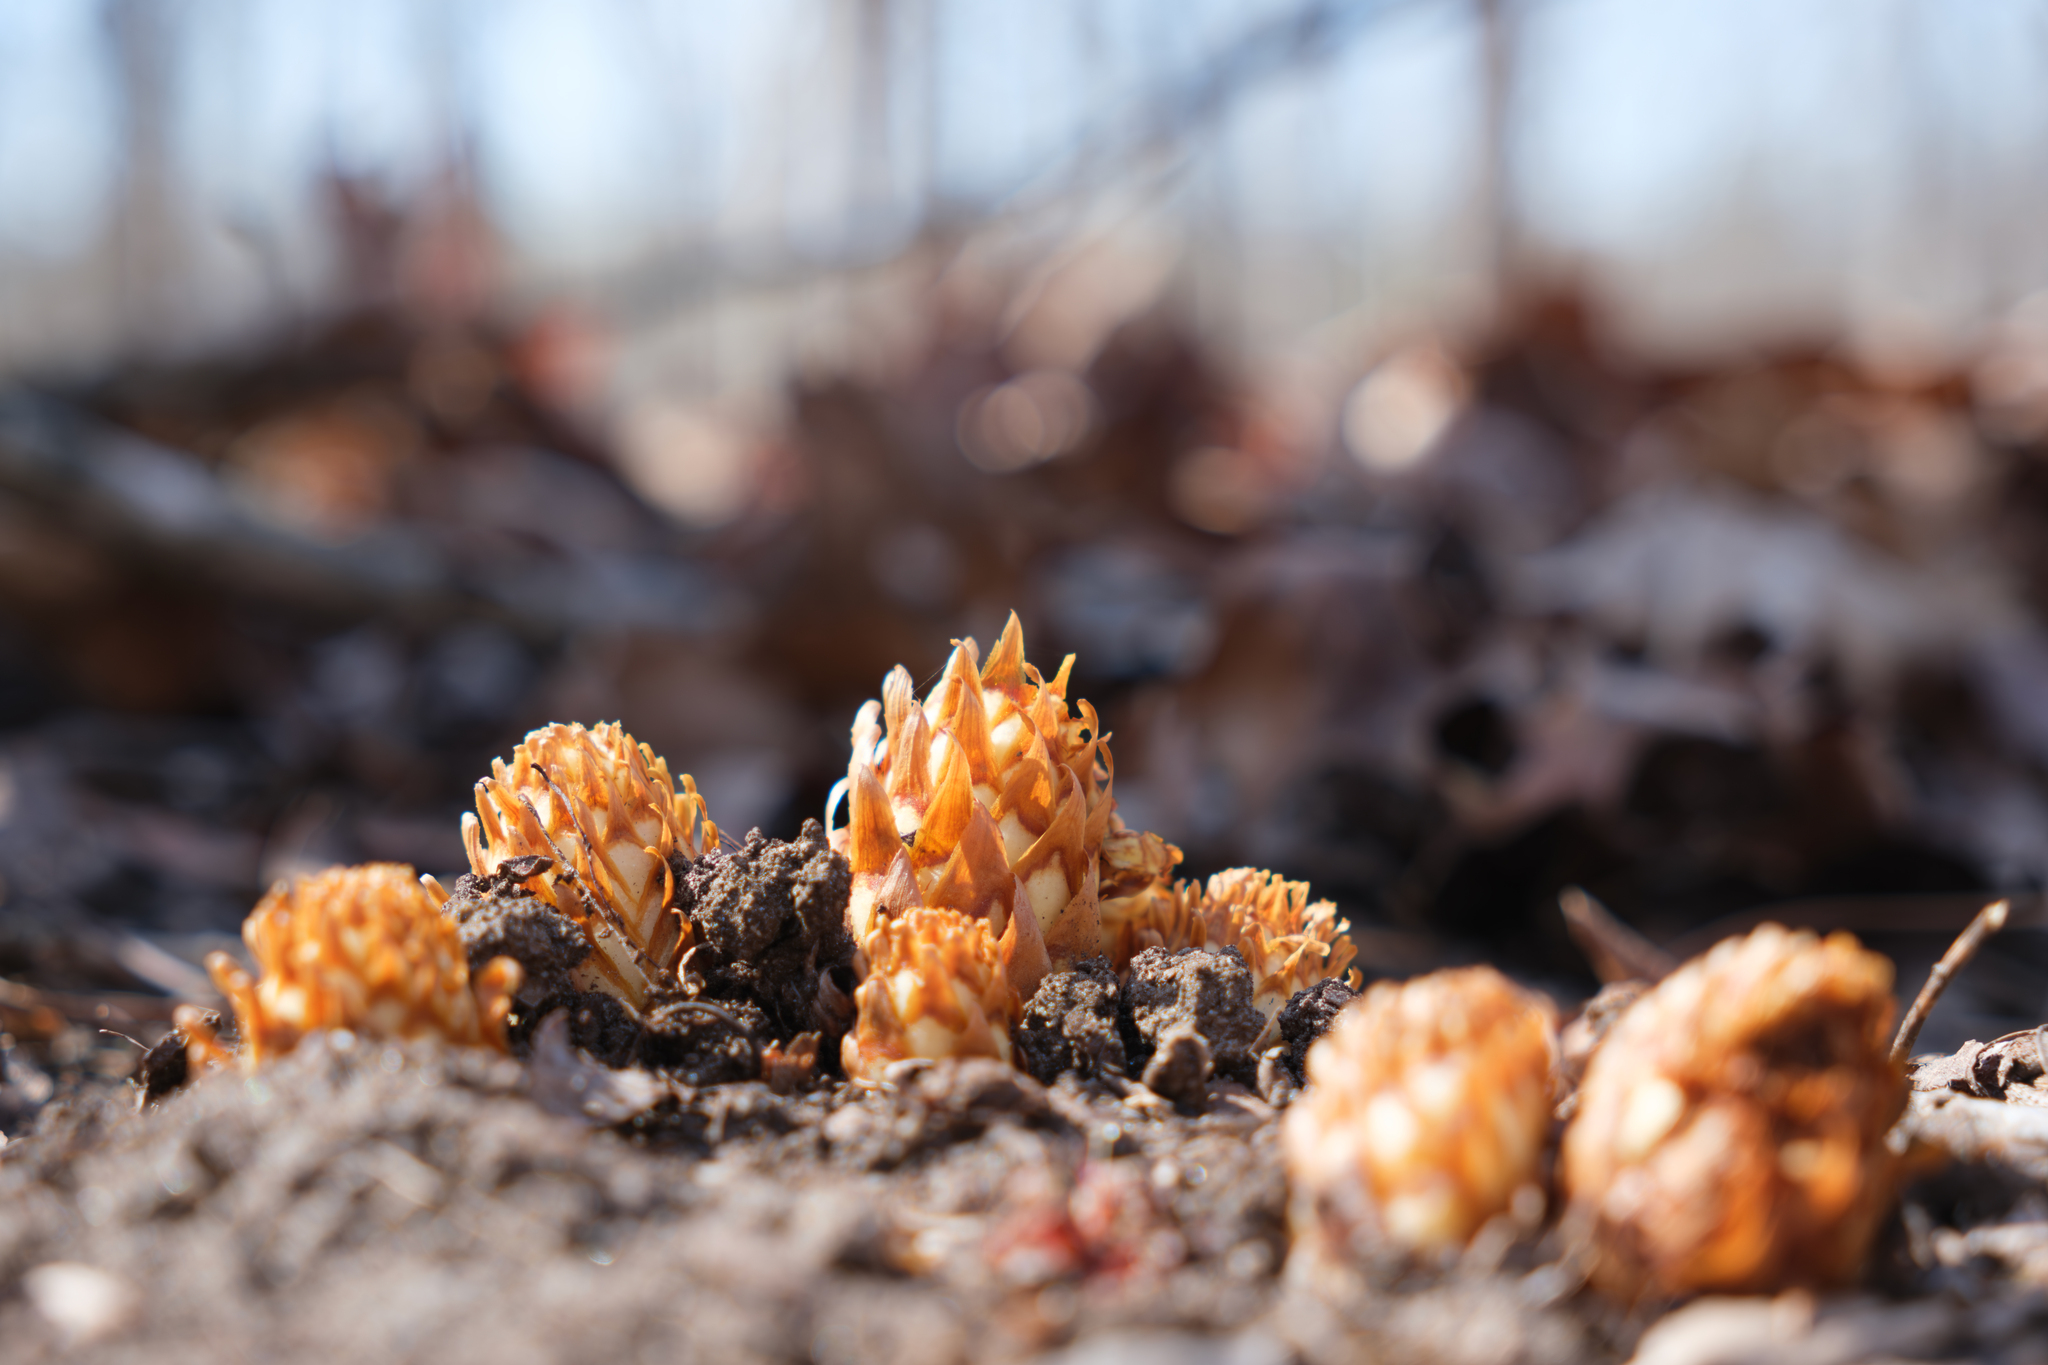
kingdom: Plantae
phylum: Tracheophyta
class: Magnoliopsida
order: Lamiales
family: Orobanchaceae
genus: Conopholis
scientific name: Conopholis americana
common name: American cancer-root
